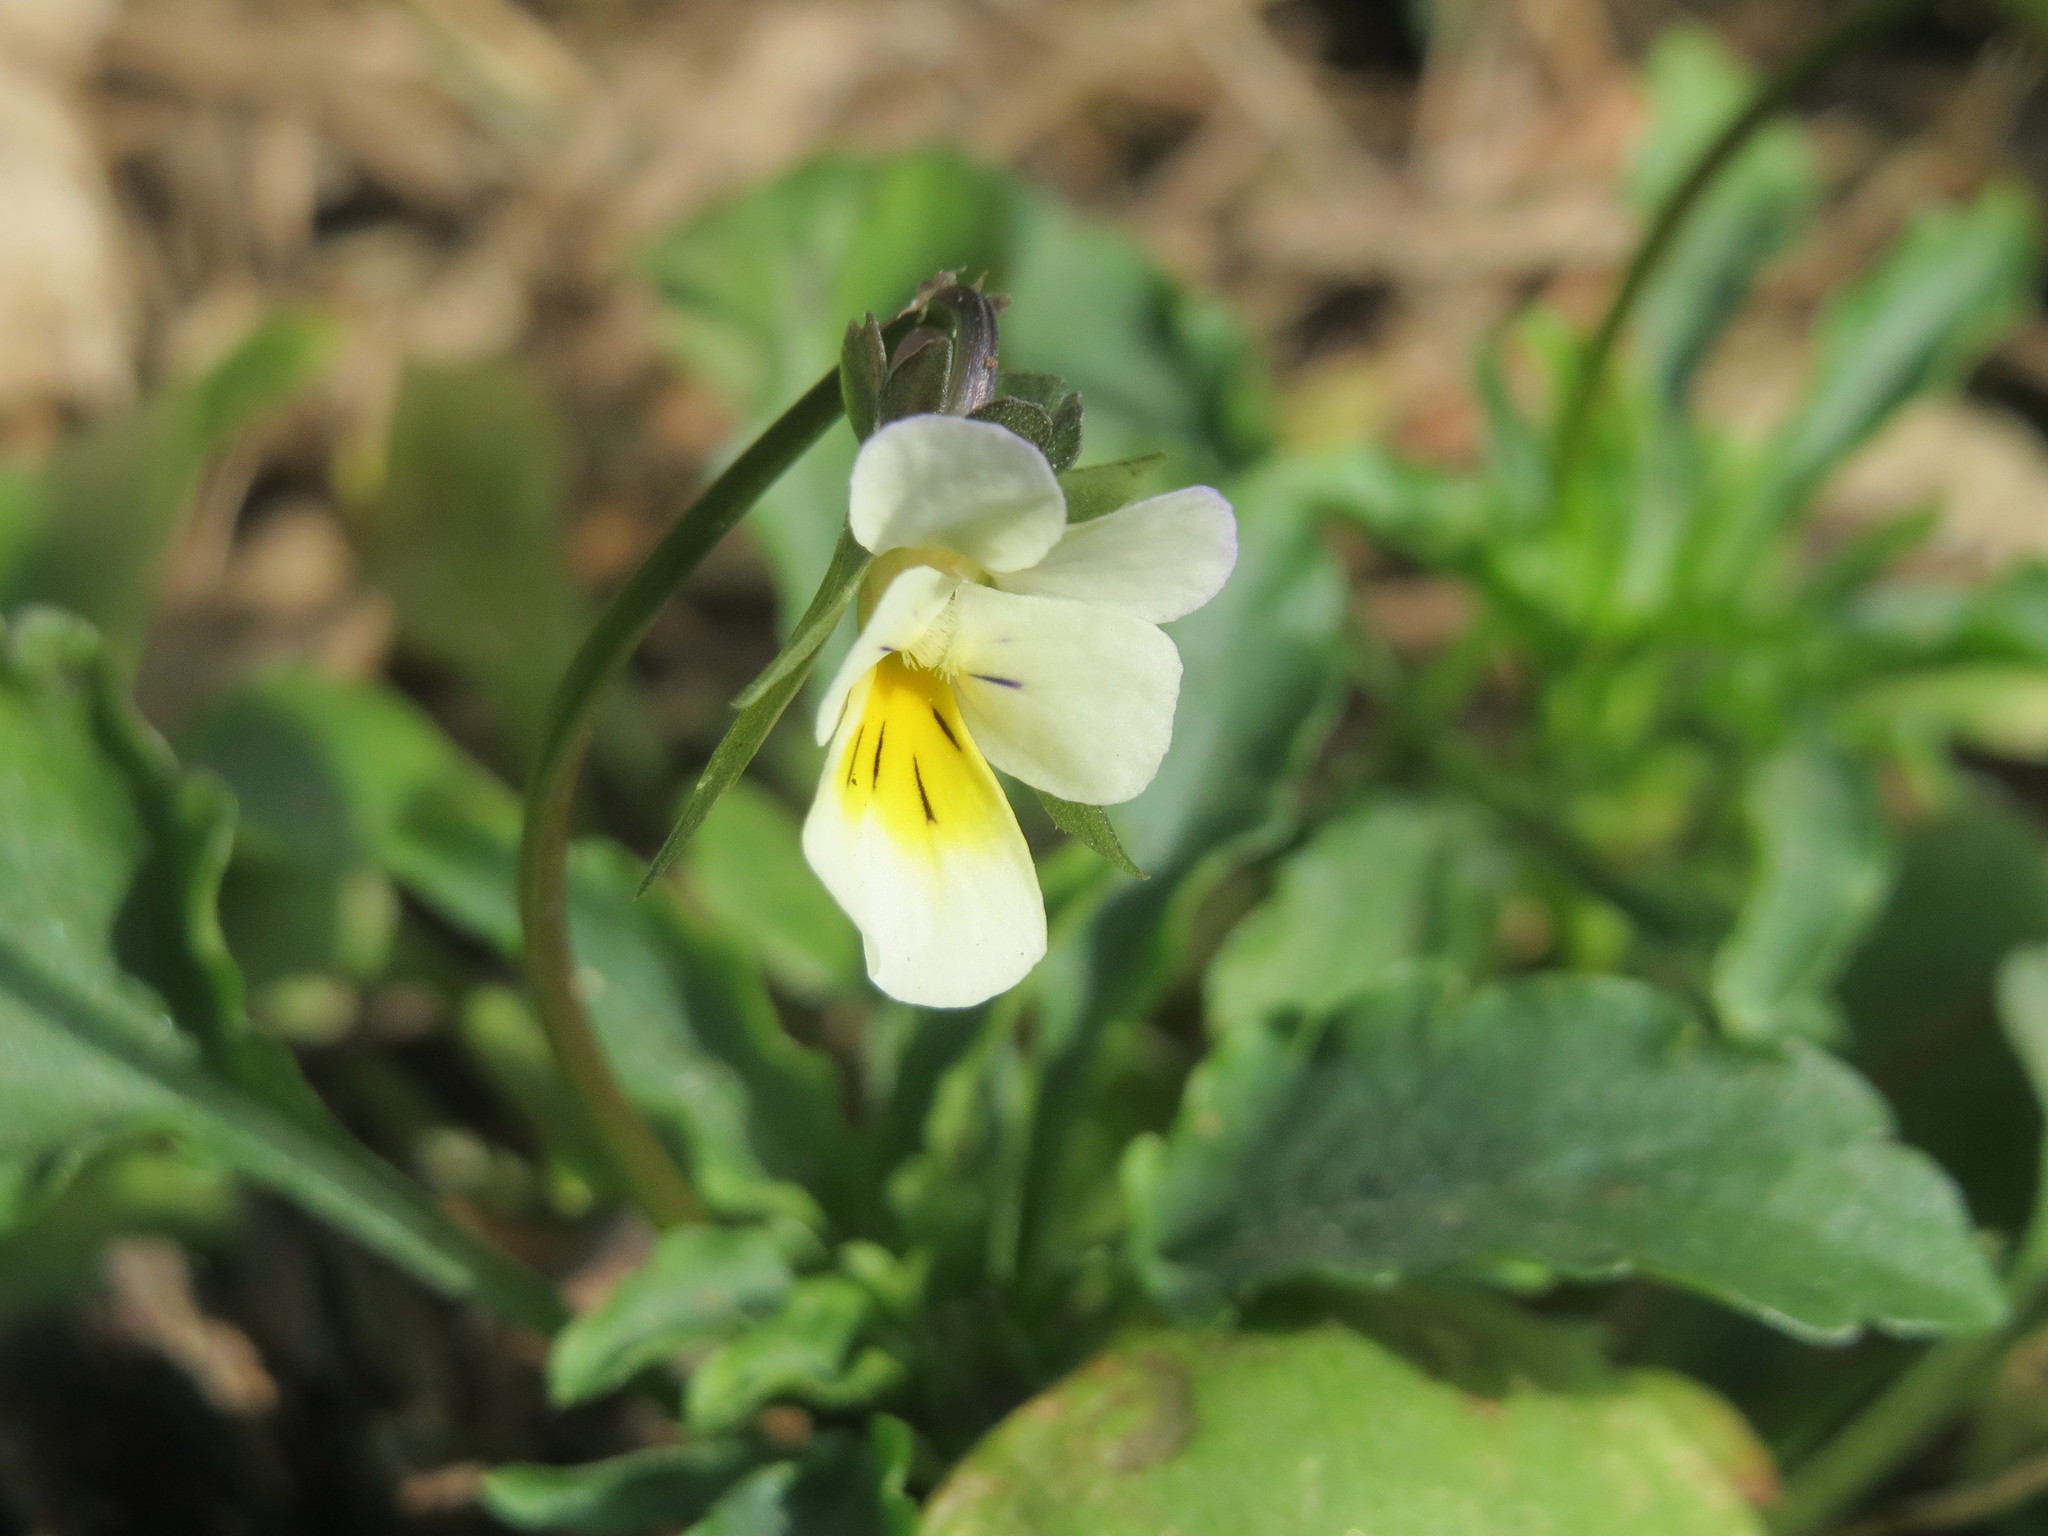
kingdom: Plantae
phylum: Tracheophyta
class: Magnoliopsida
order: Malpighiales
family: Violaceae
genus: Viola
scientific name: Viola arvensis
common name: Field pansy
